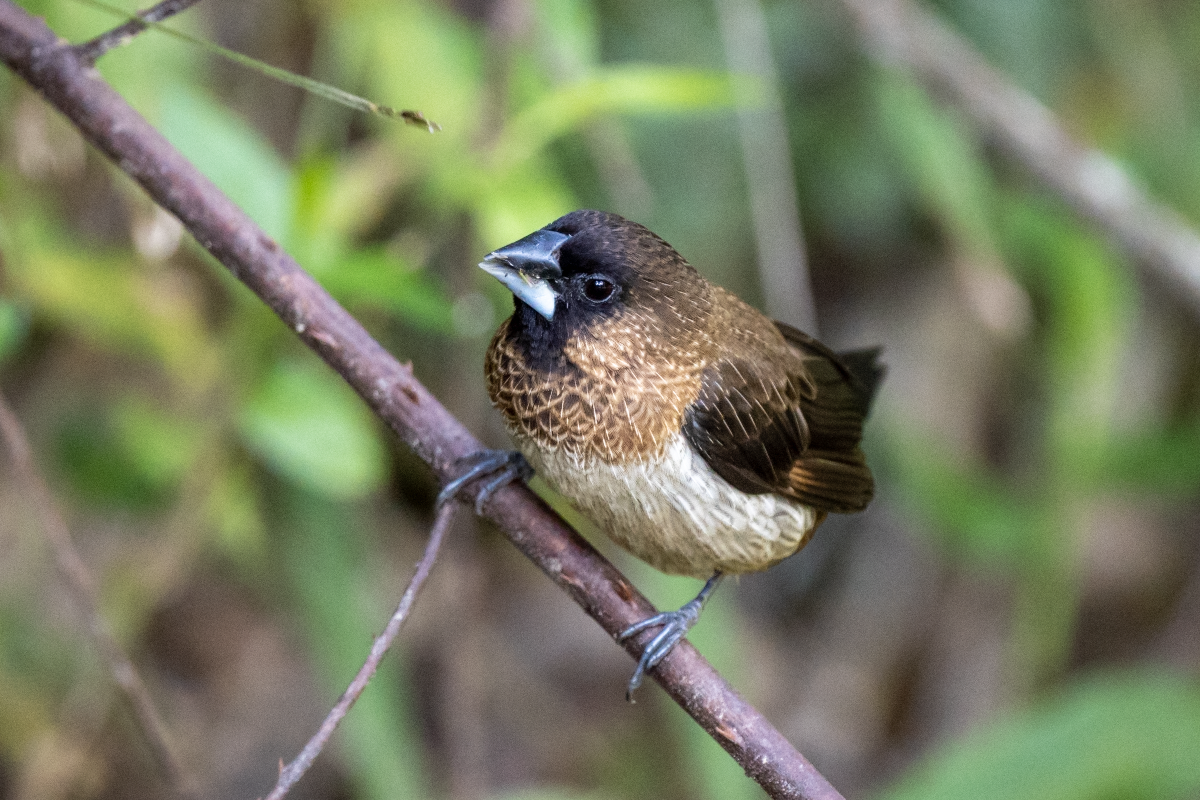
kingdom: Animalia
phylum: Chordata
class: Aves
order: Passeriformes
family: Estrildidae
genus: Lonchura
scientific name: Lonchura striata
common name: White-rumped munia
